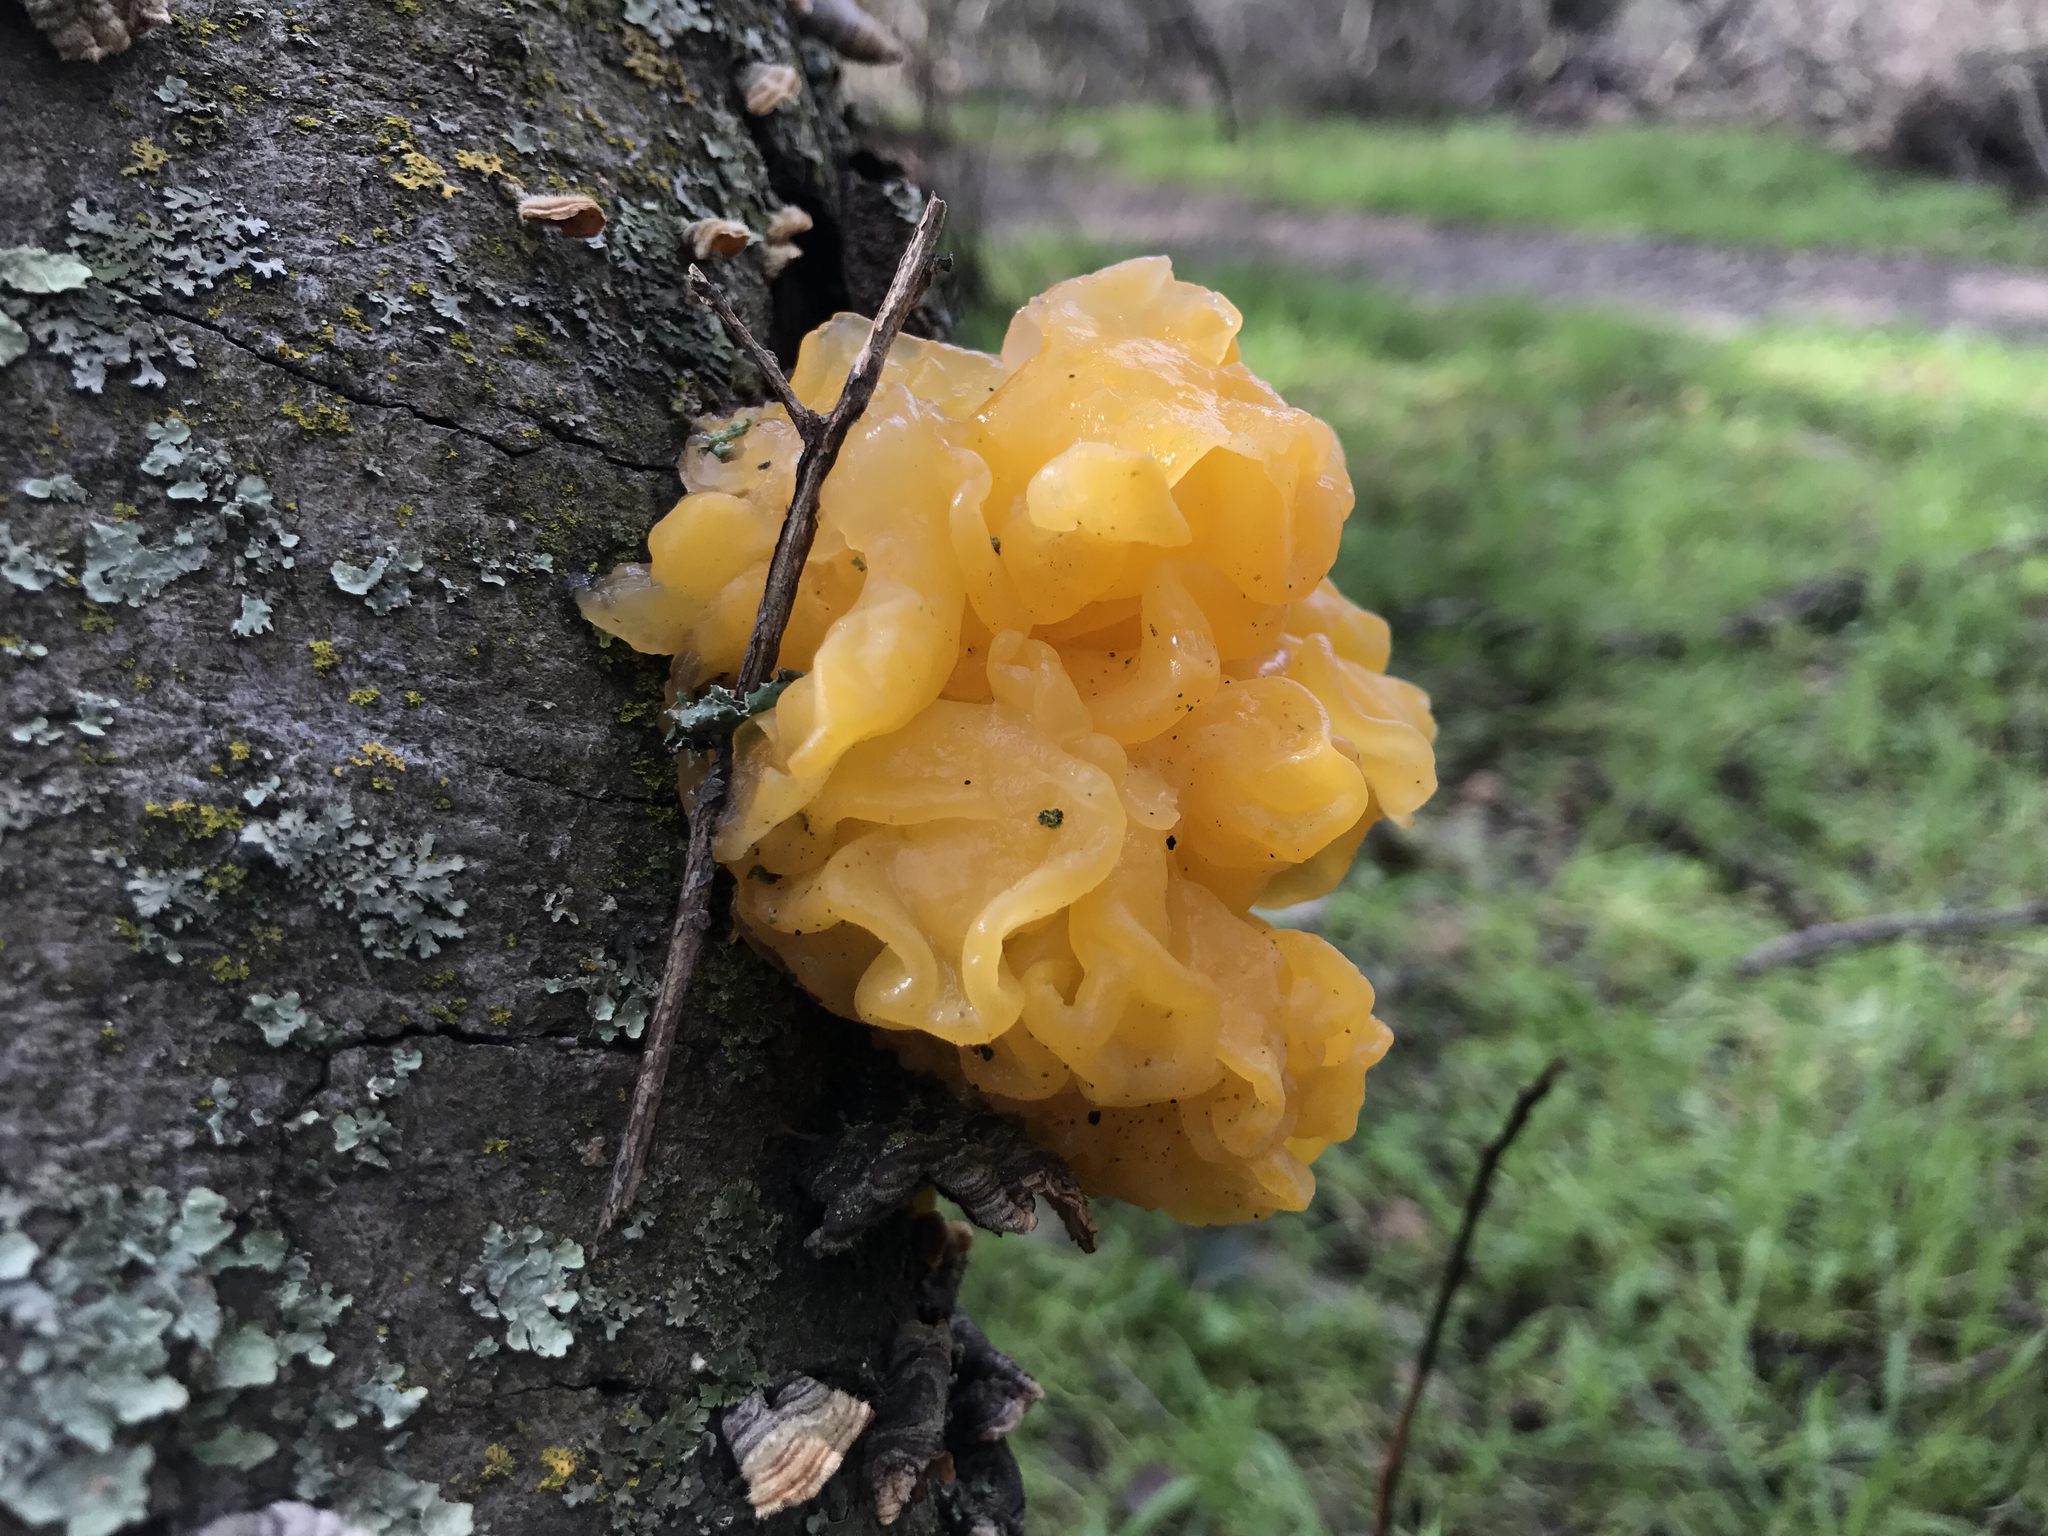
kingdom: Fungi
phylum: Basidiomycota
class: Tremellomycetes
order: Tremellales
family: Naemateliaceae
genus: Naematelia
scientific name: Naematelia aurantia
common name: Golden ear
